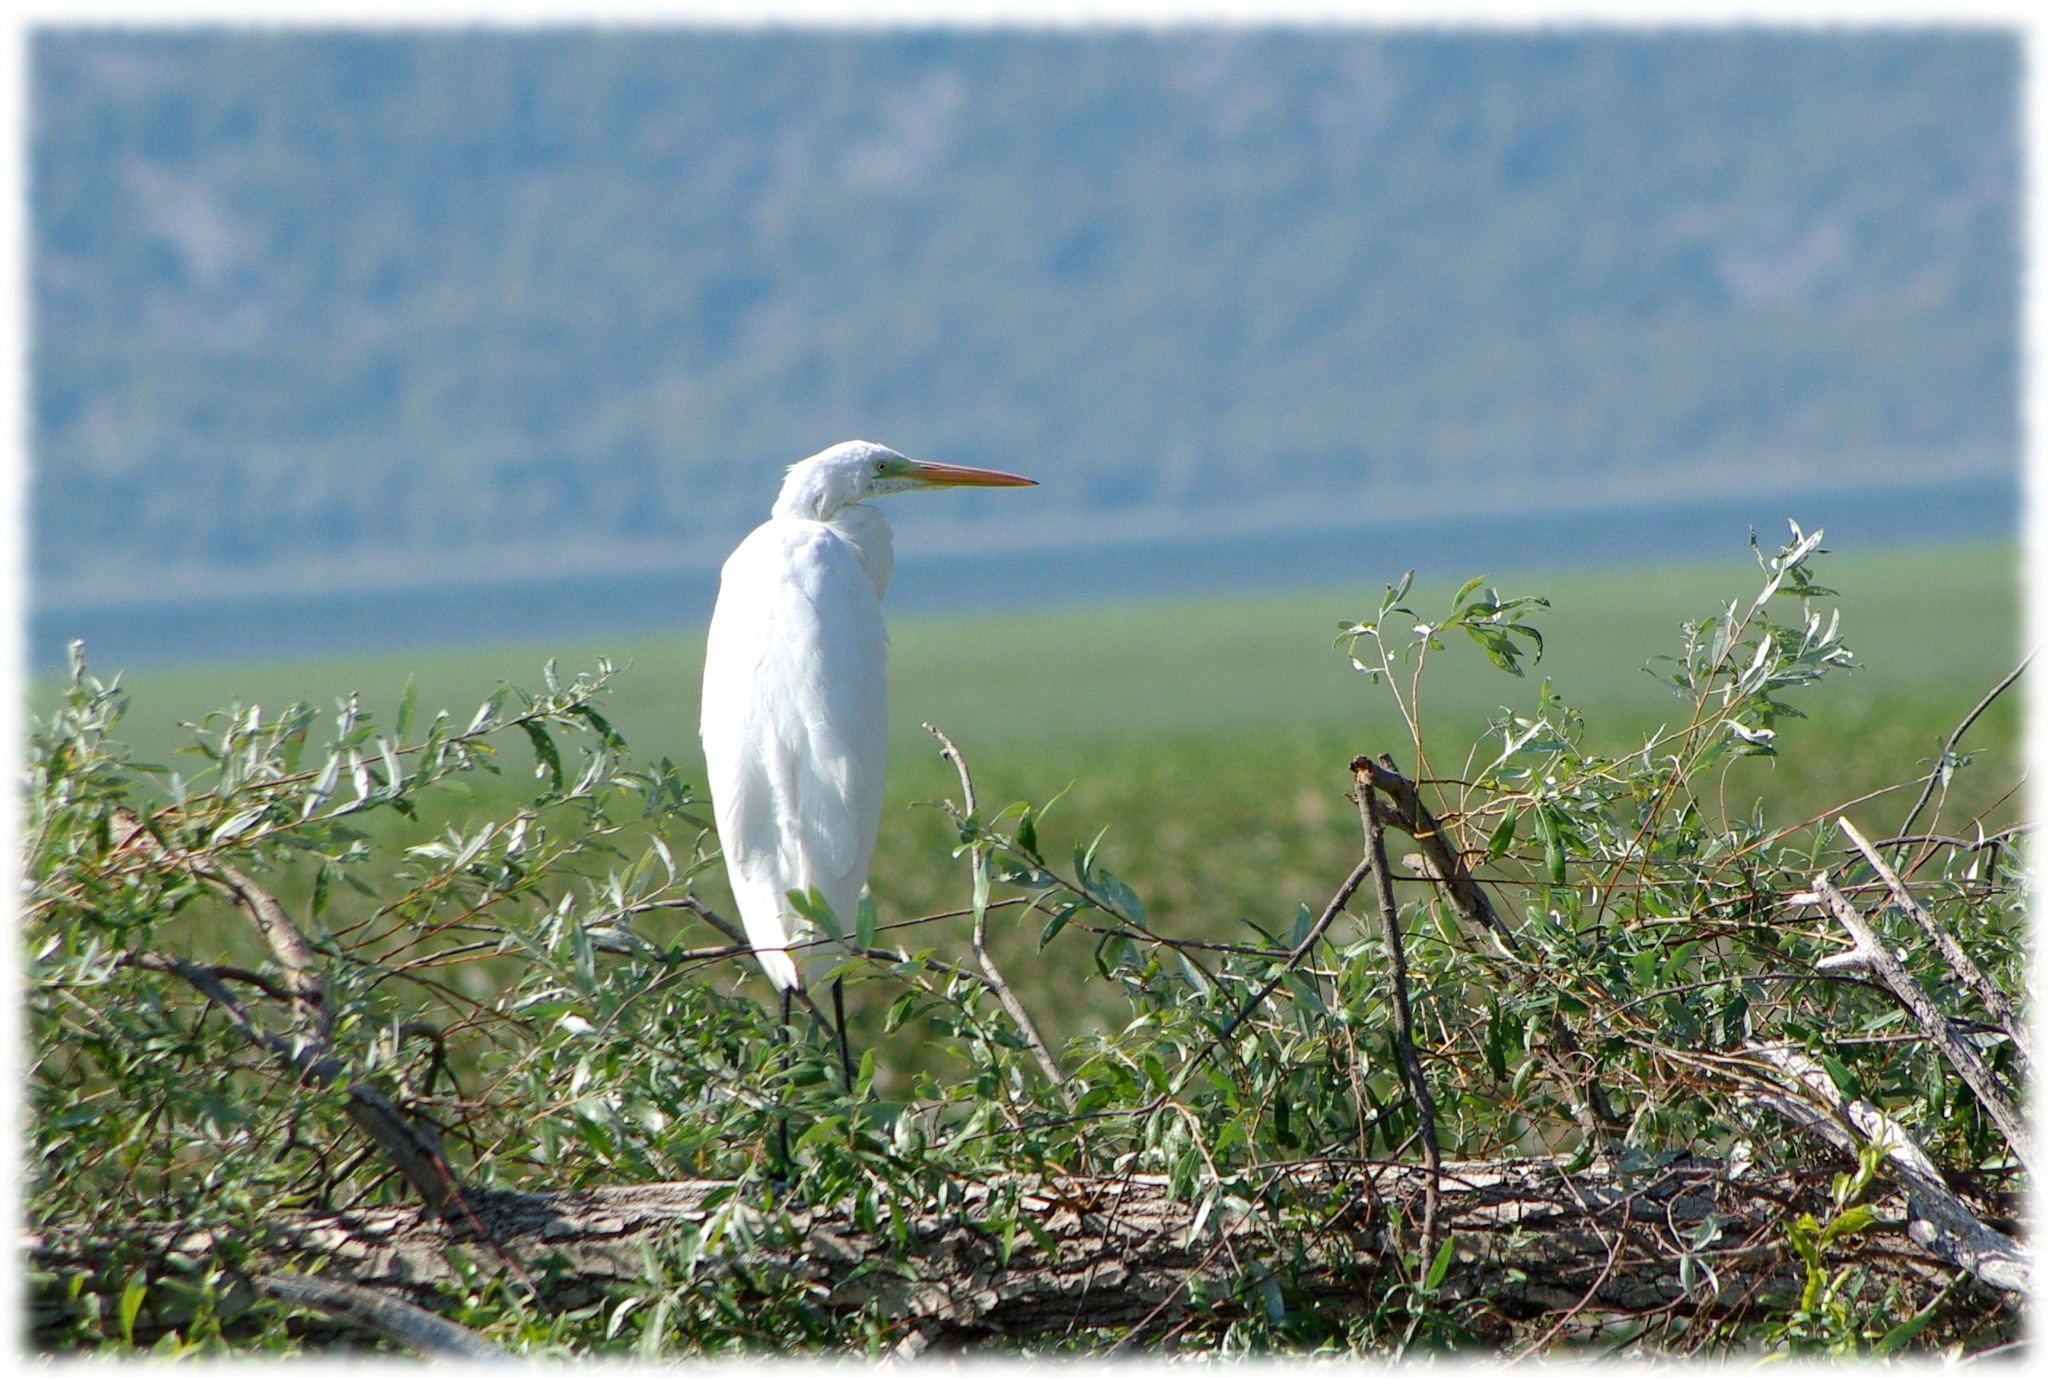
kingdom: Animalia
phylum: Chordata
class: Aves
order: Pelecaniformes
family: Ardeidae
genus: Ardea
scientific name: Ardea alba
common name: Great egret
